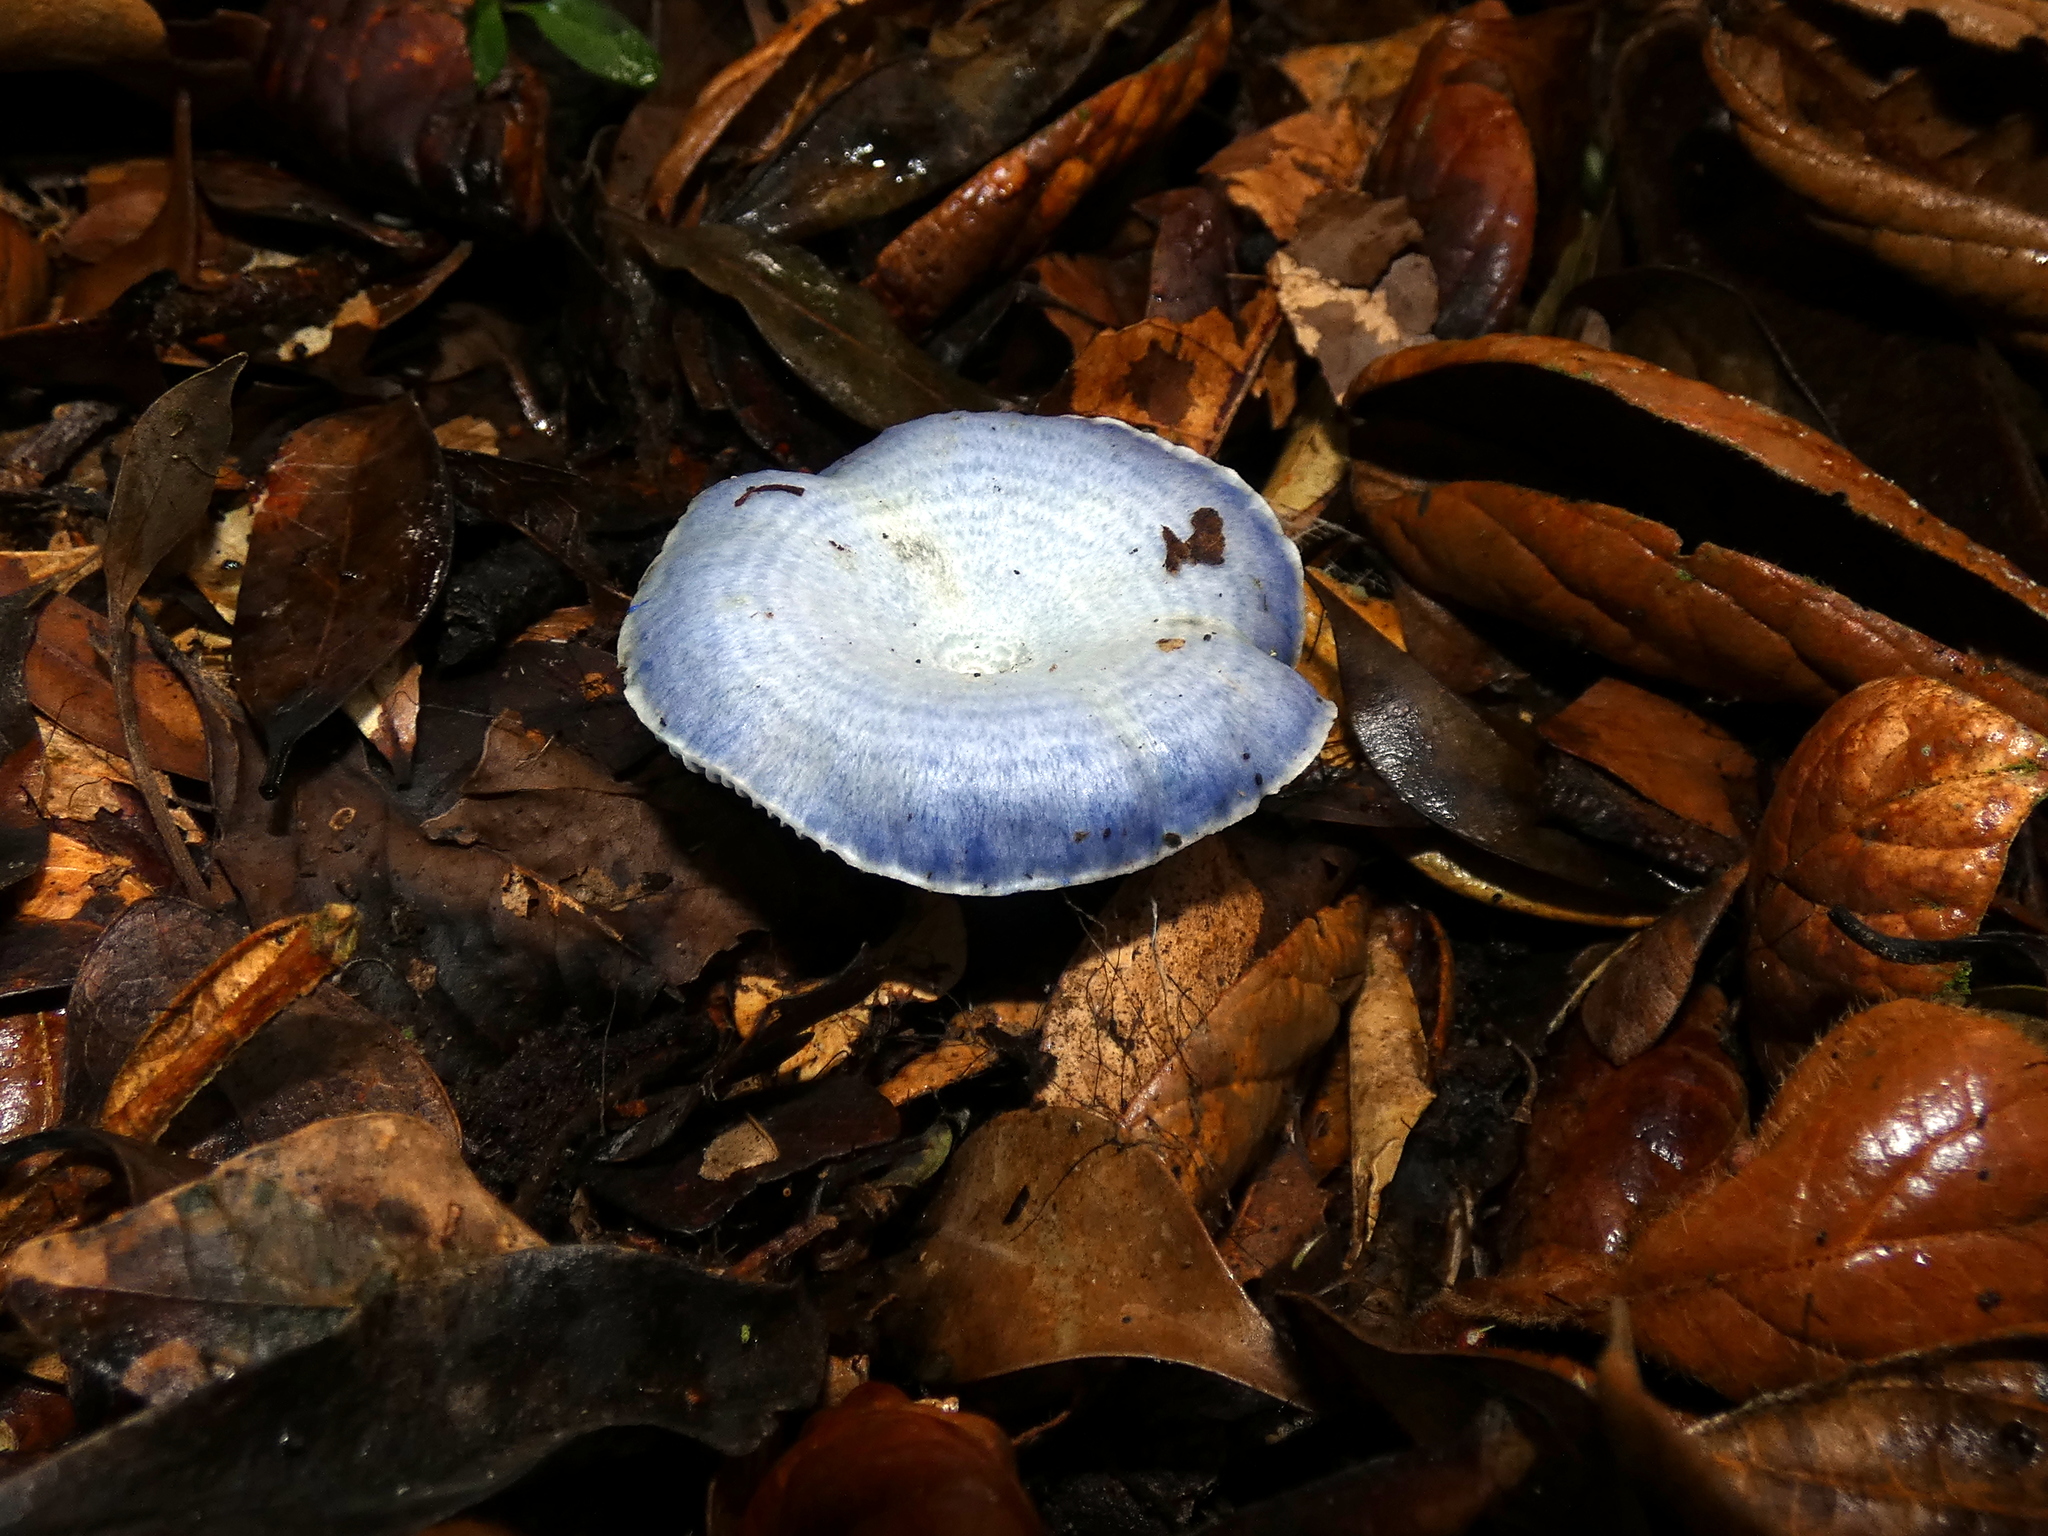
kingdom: Fungi
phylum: Basidiomycota
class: Agaricomycetes
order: Russulales
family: Russulaceae
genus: Lactarius
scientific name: Lactarius indigo
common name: Indigo milk cap
